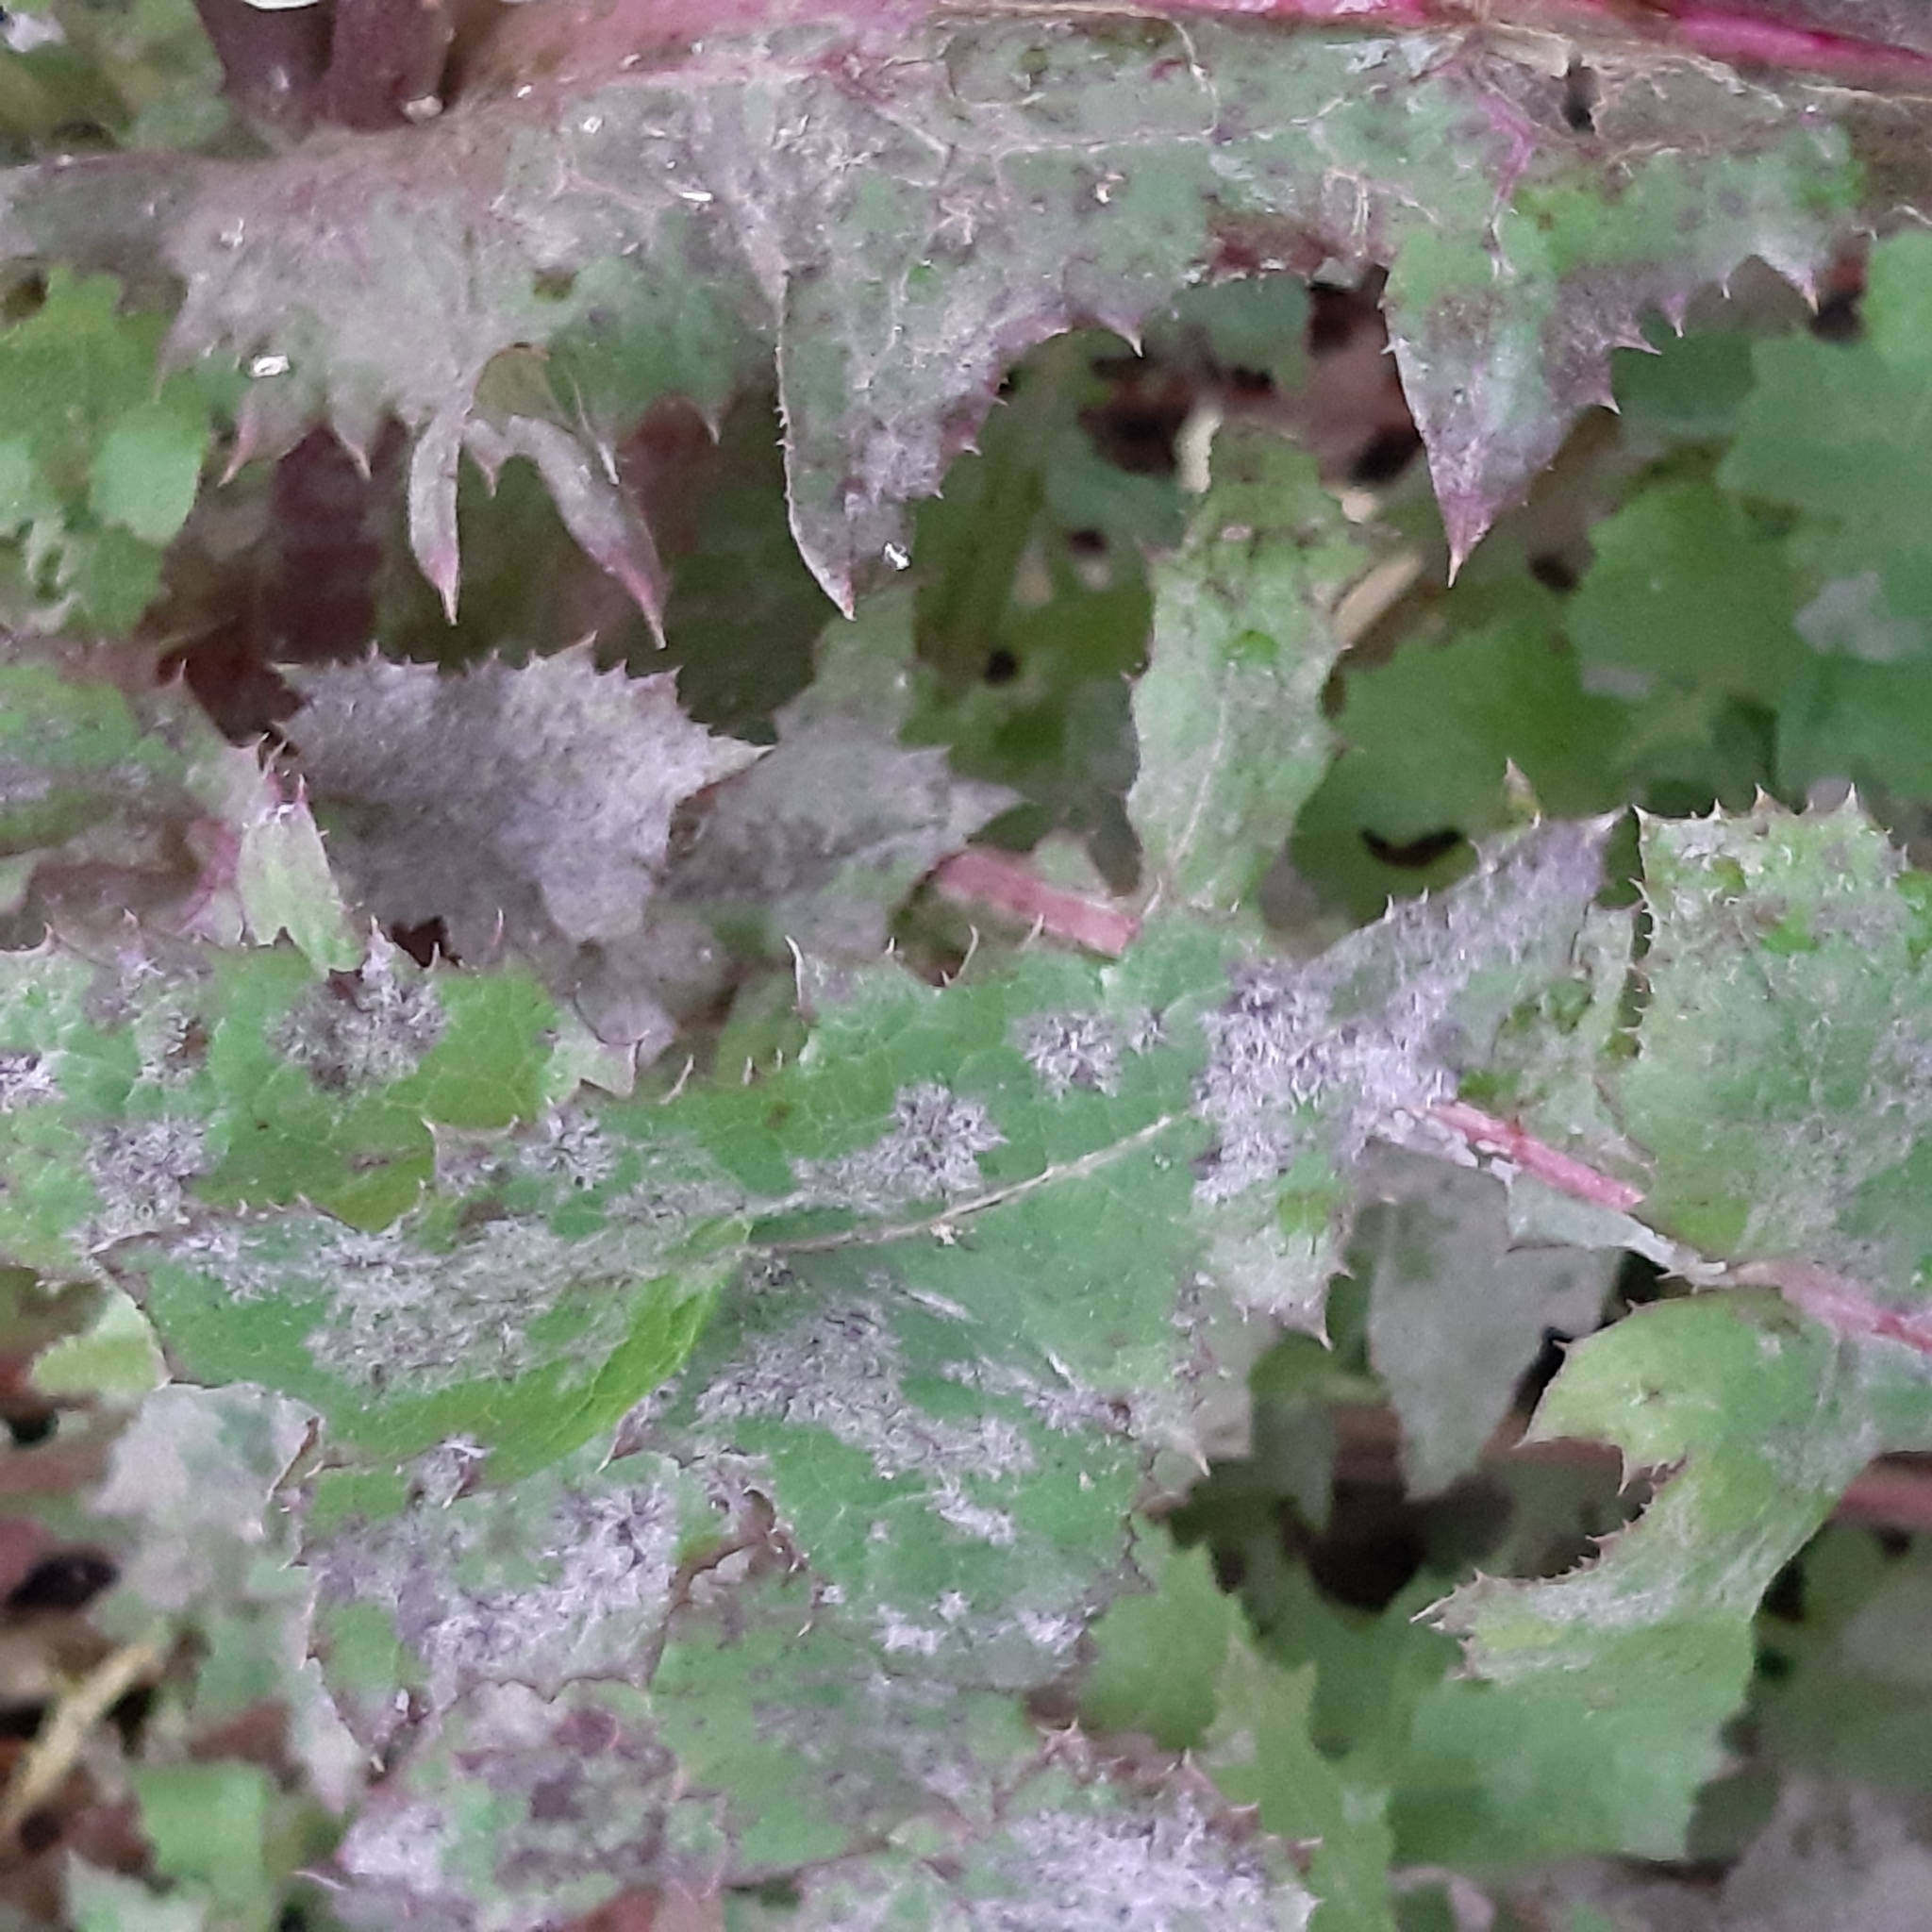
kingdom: Plantae
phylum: Tracheophyta
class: Magnoliopsida
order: Asterales
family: Asteraceae
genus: Sonchus
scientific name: Sonchus oleraceus
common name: Common sowthistle
